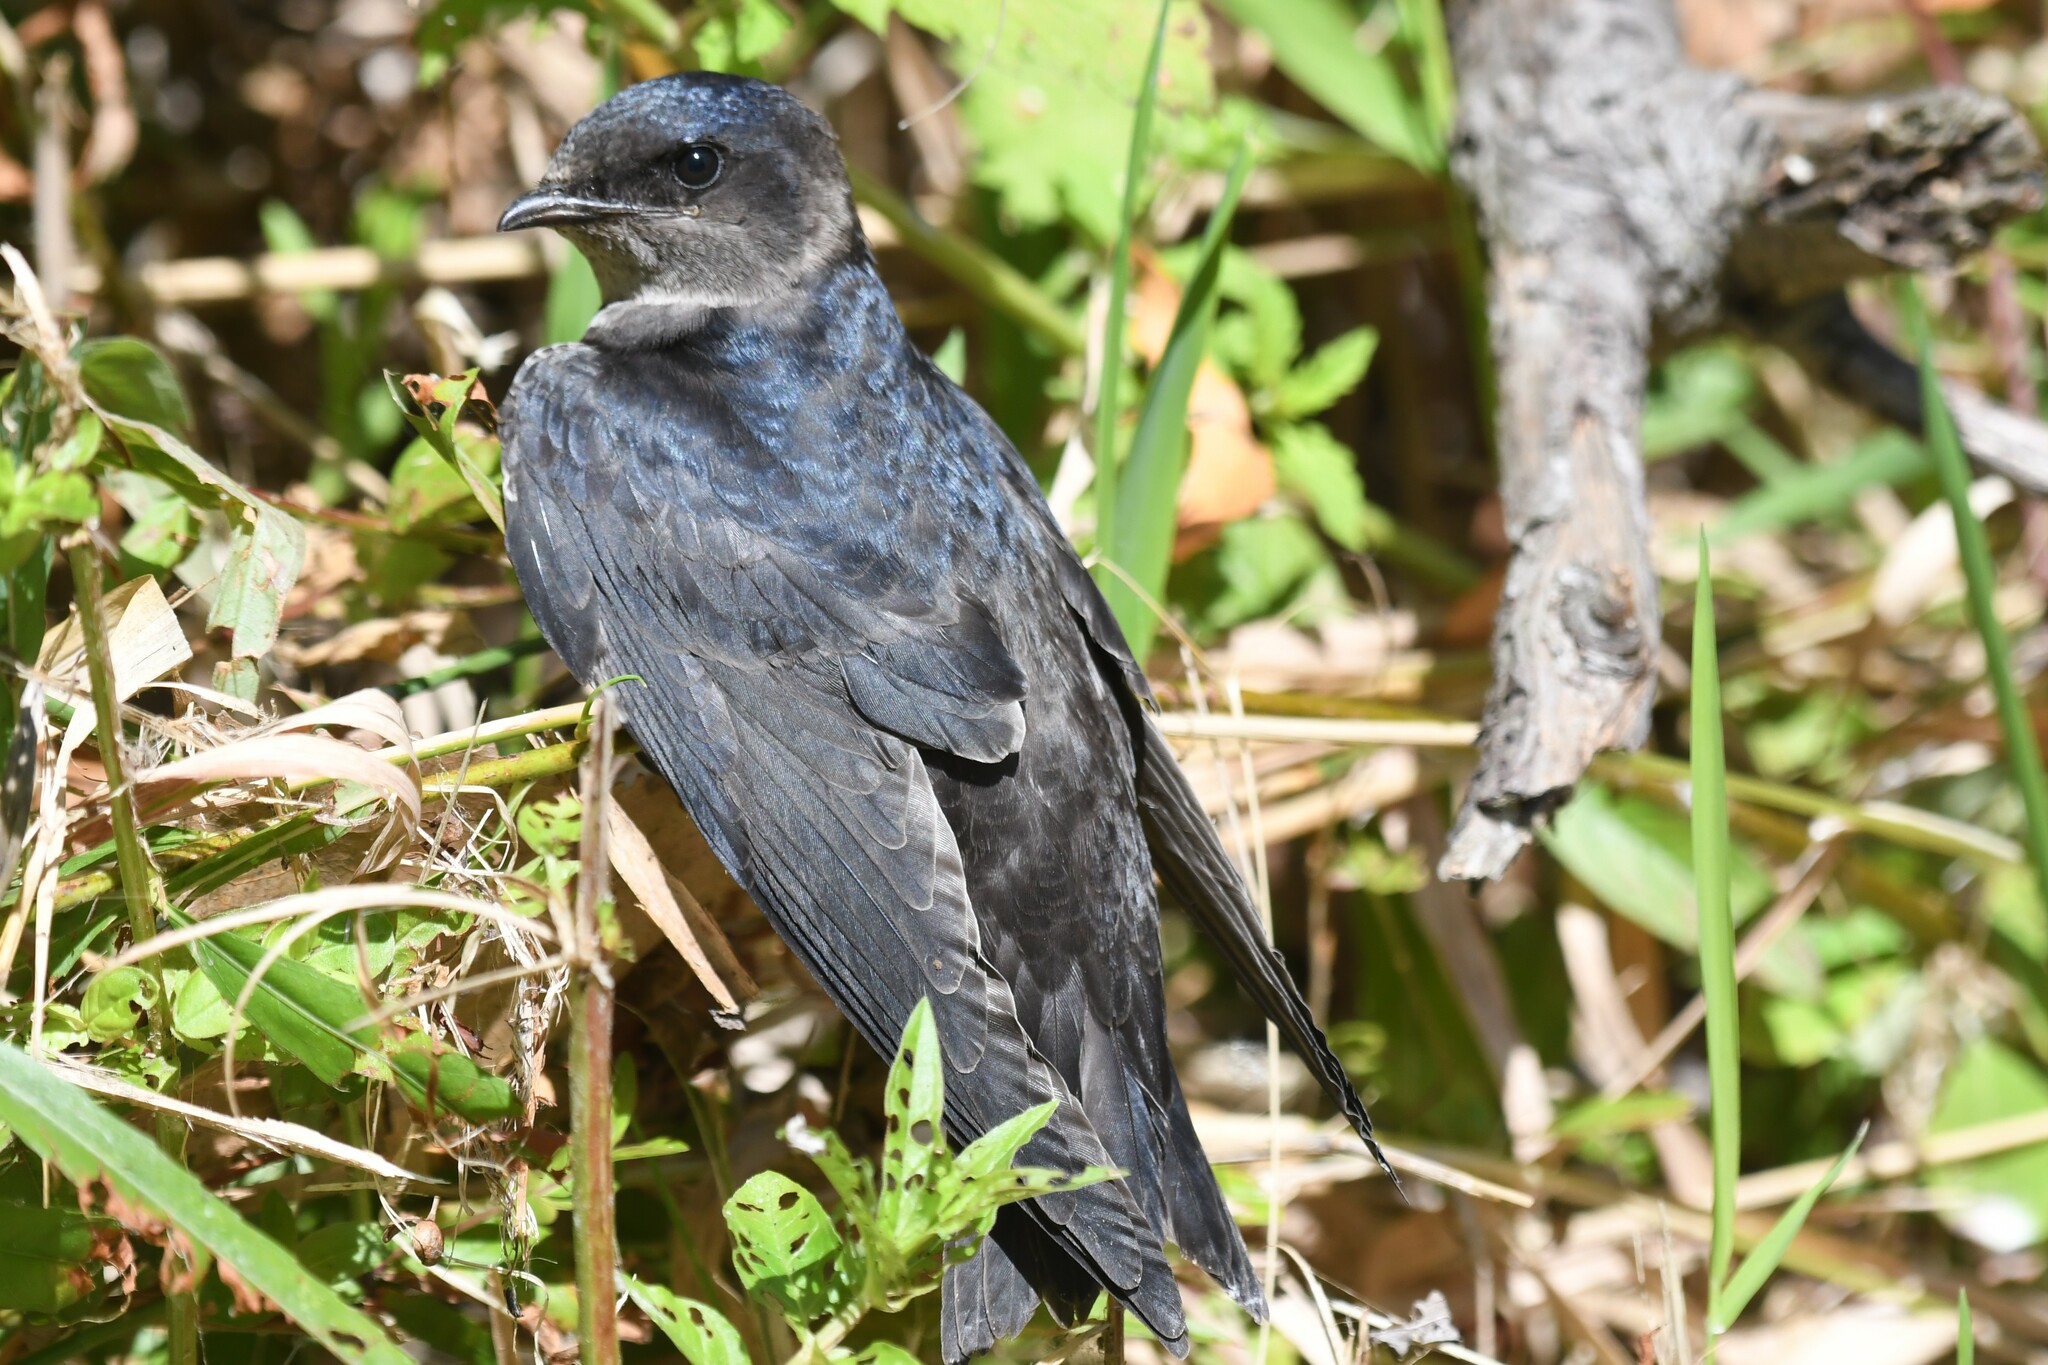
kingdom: Animalia
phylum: Chordata
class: Aves
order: Passeriformes
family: Hirundinidae
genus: Progne
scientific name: Progne subis
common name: Purple martin
